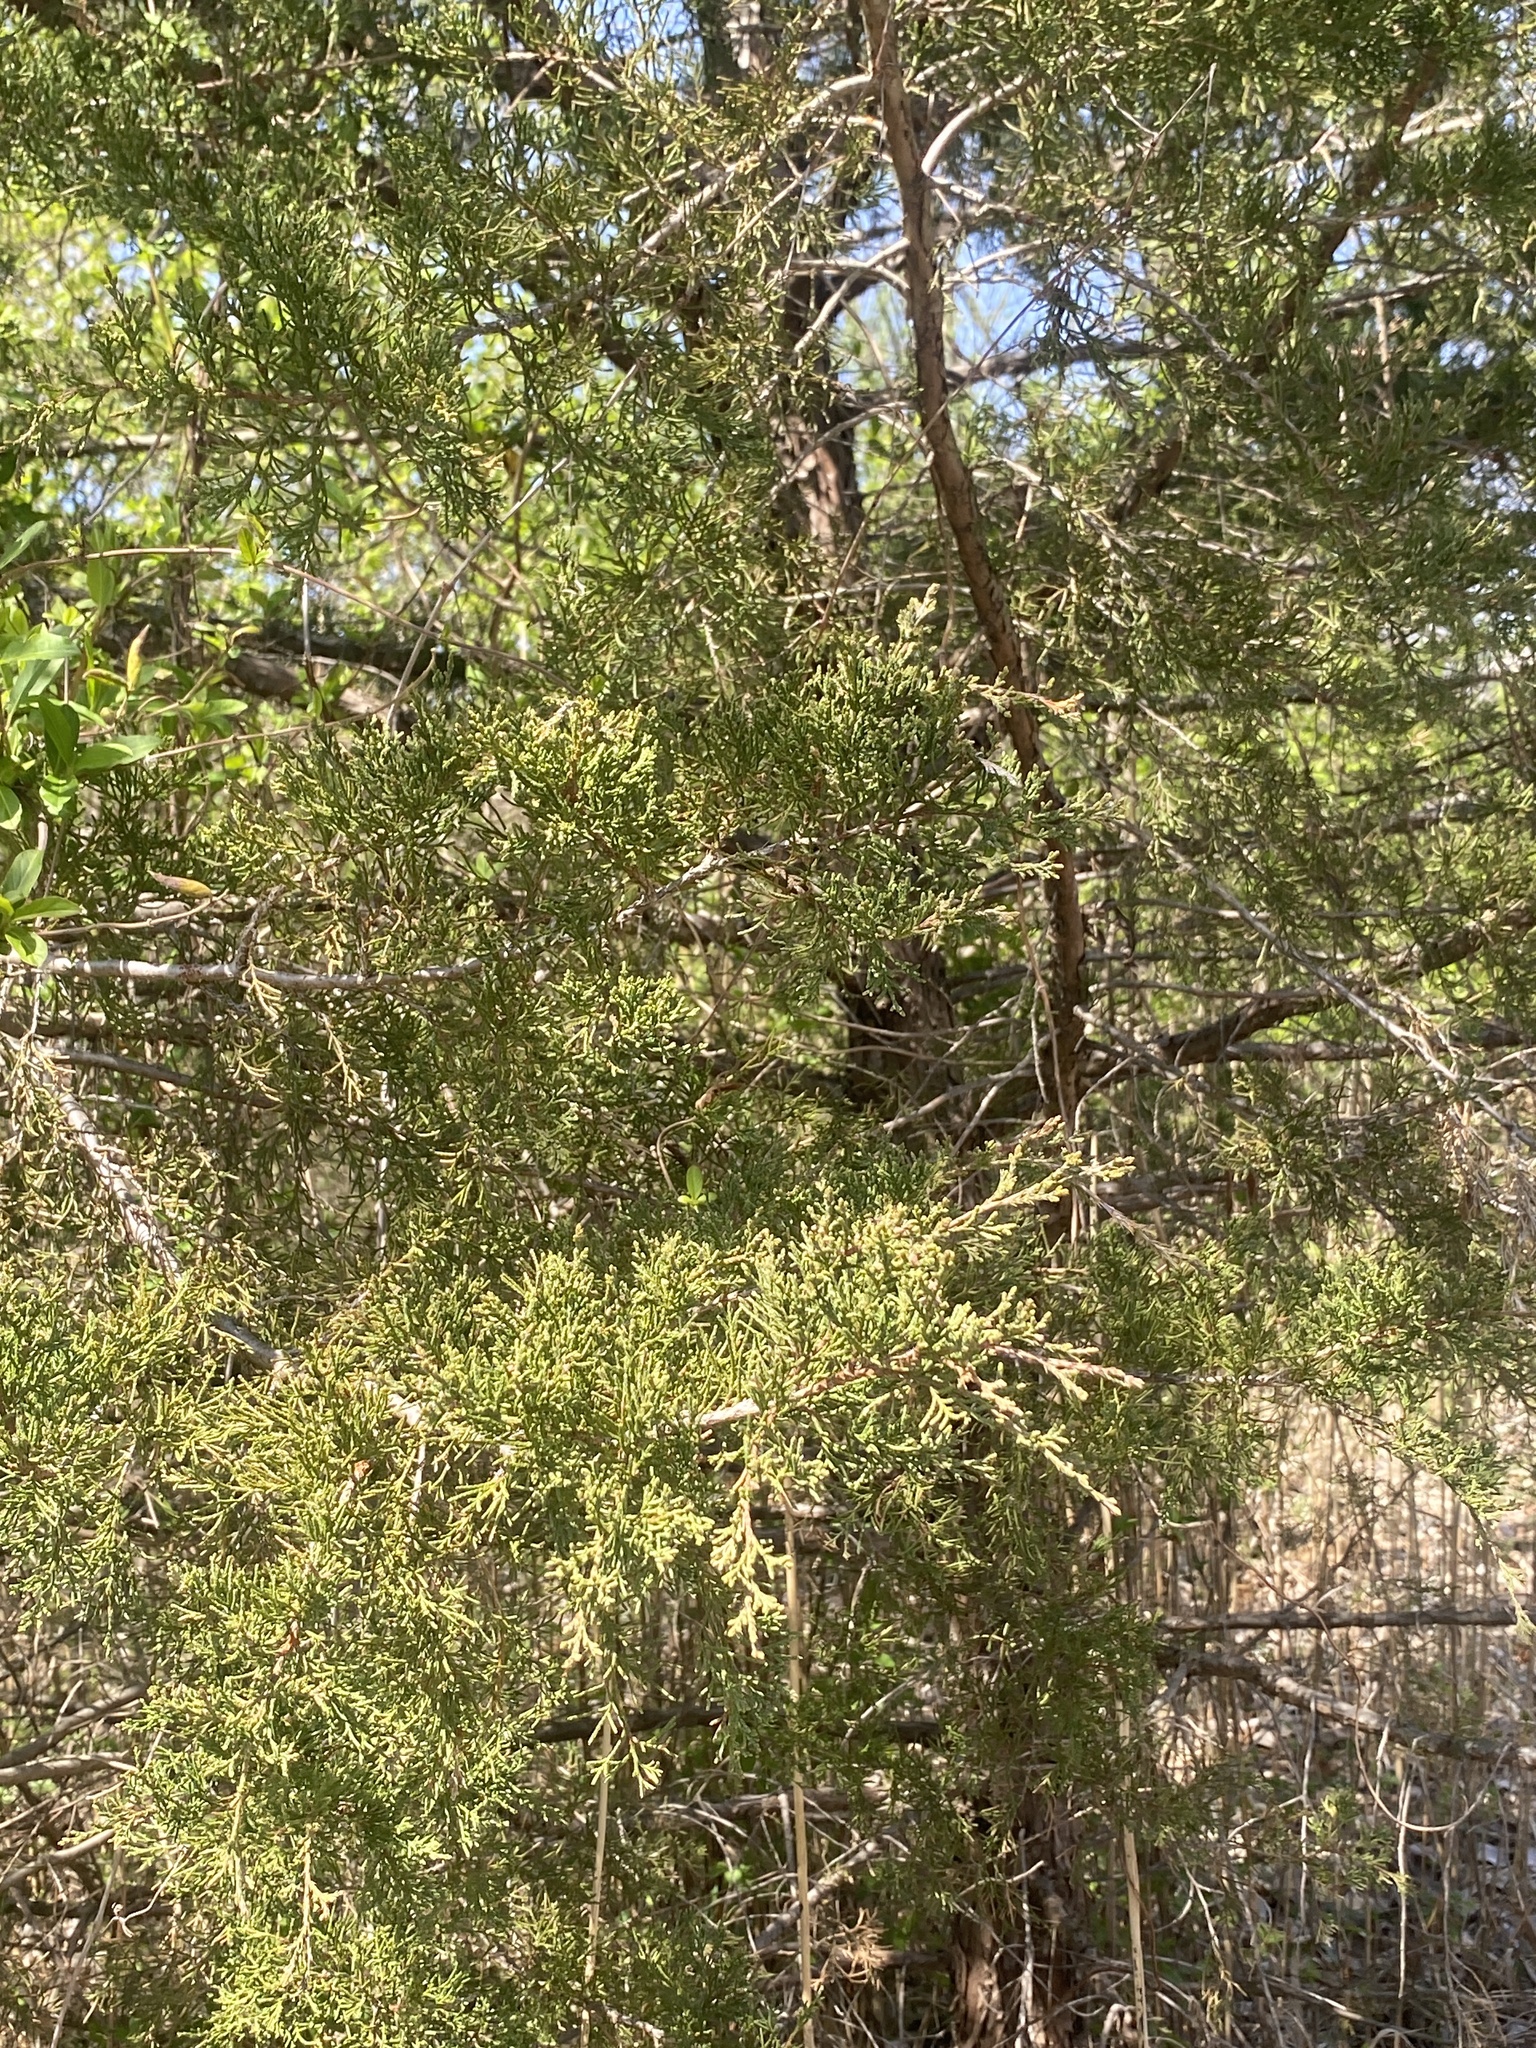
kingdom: Plantae
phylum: Tracheophyta
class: Pinopsida
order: Pinales
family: Cupressaceae
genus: Juniperus
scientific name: Juniperus virginiana
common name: Red juniper
